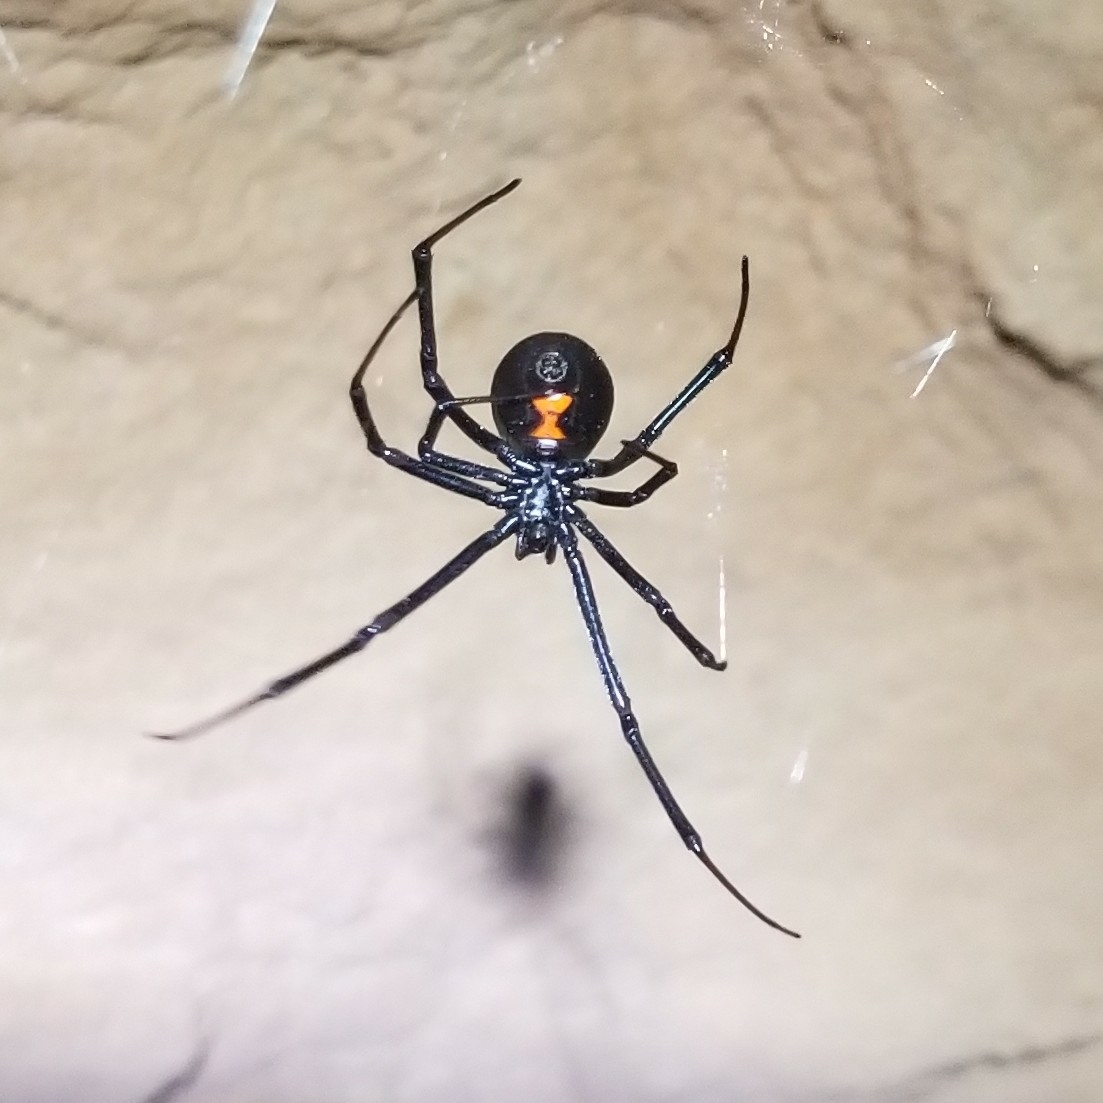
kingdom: Animalia
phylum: Arthropoda
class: Arachnida
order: Araneae
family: Theridiidae
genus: Latrodectus
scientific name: Latrodectus hesperus
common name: Western black widow
